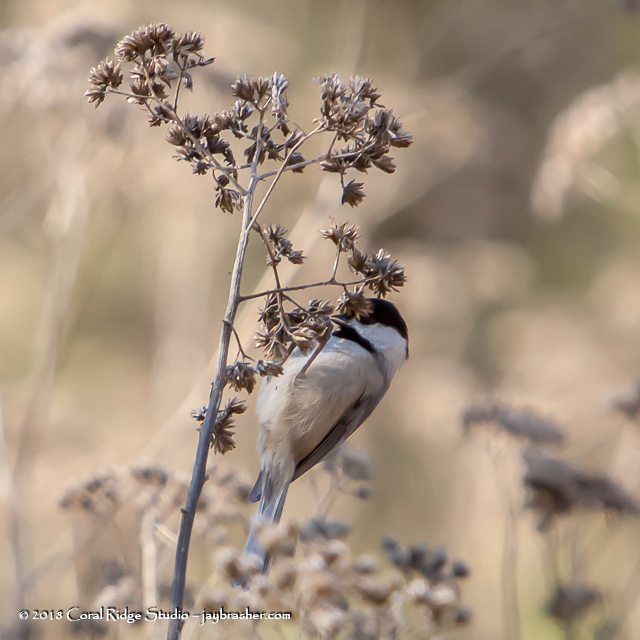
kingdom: Animalia
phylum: Chordata
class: Aves
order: Passeriformes
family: Paridae
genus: Poecile
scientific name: Poecile carolinensis
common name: Carolina chickadee
